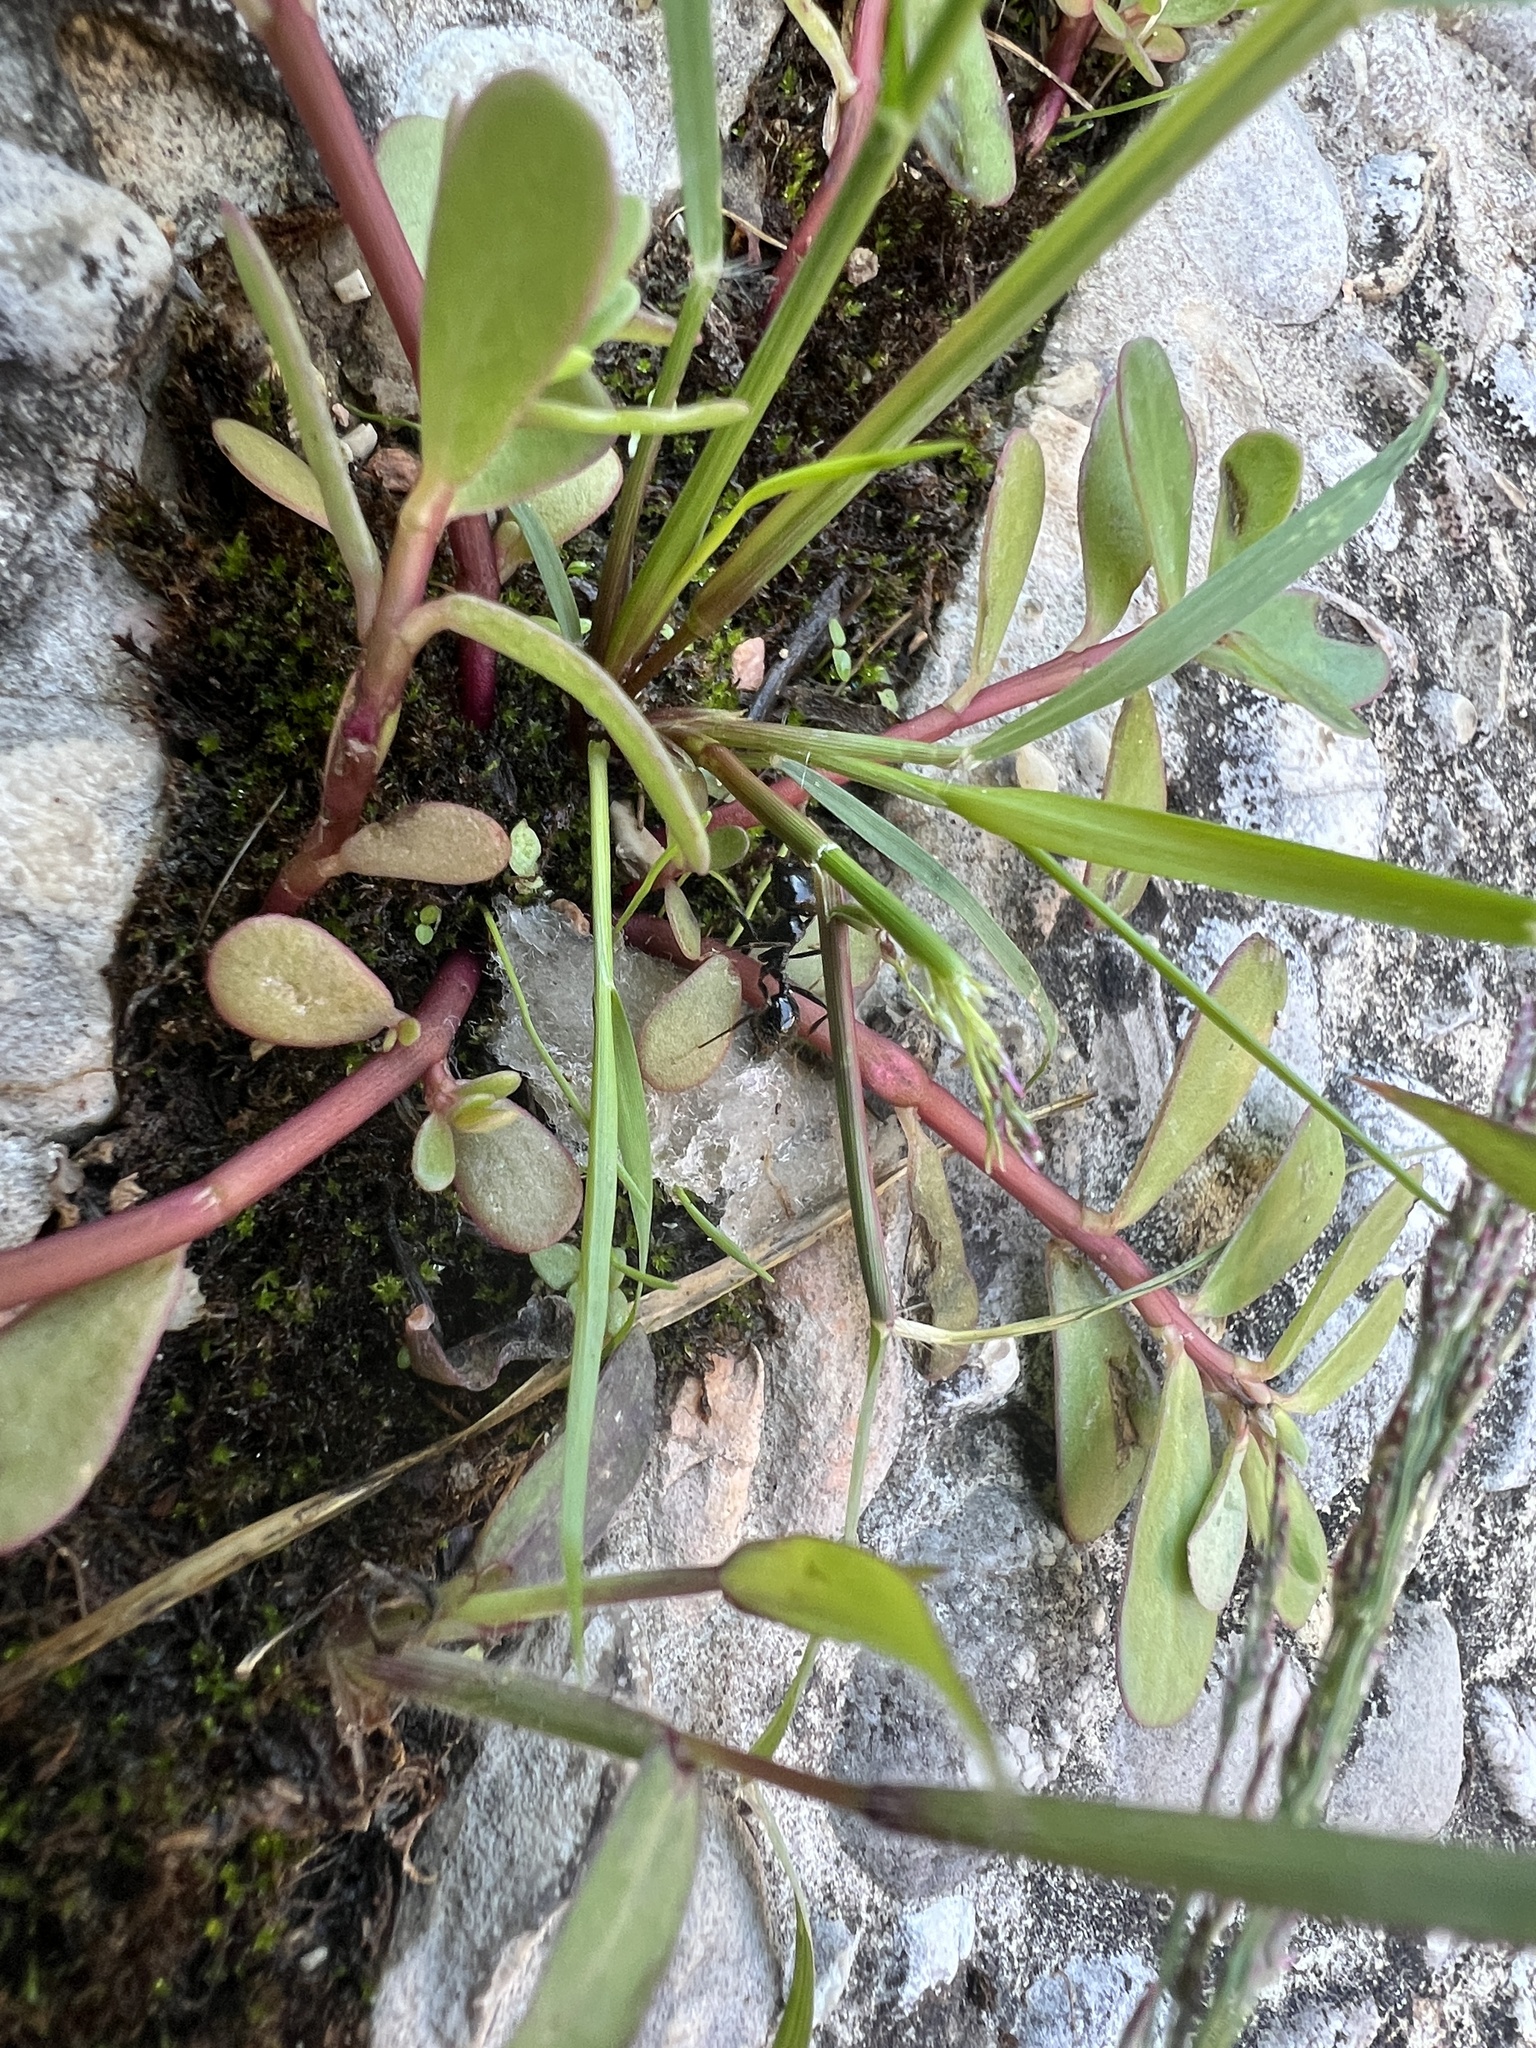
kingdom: Animalia
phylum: Arthropoda
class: Insecta
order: Hymenoptera
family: Formicidae
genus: Messor
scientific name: Messor capitatus
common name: European seed harvesting ant
